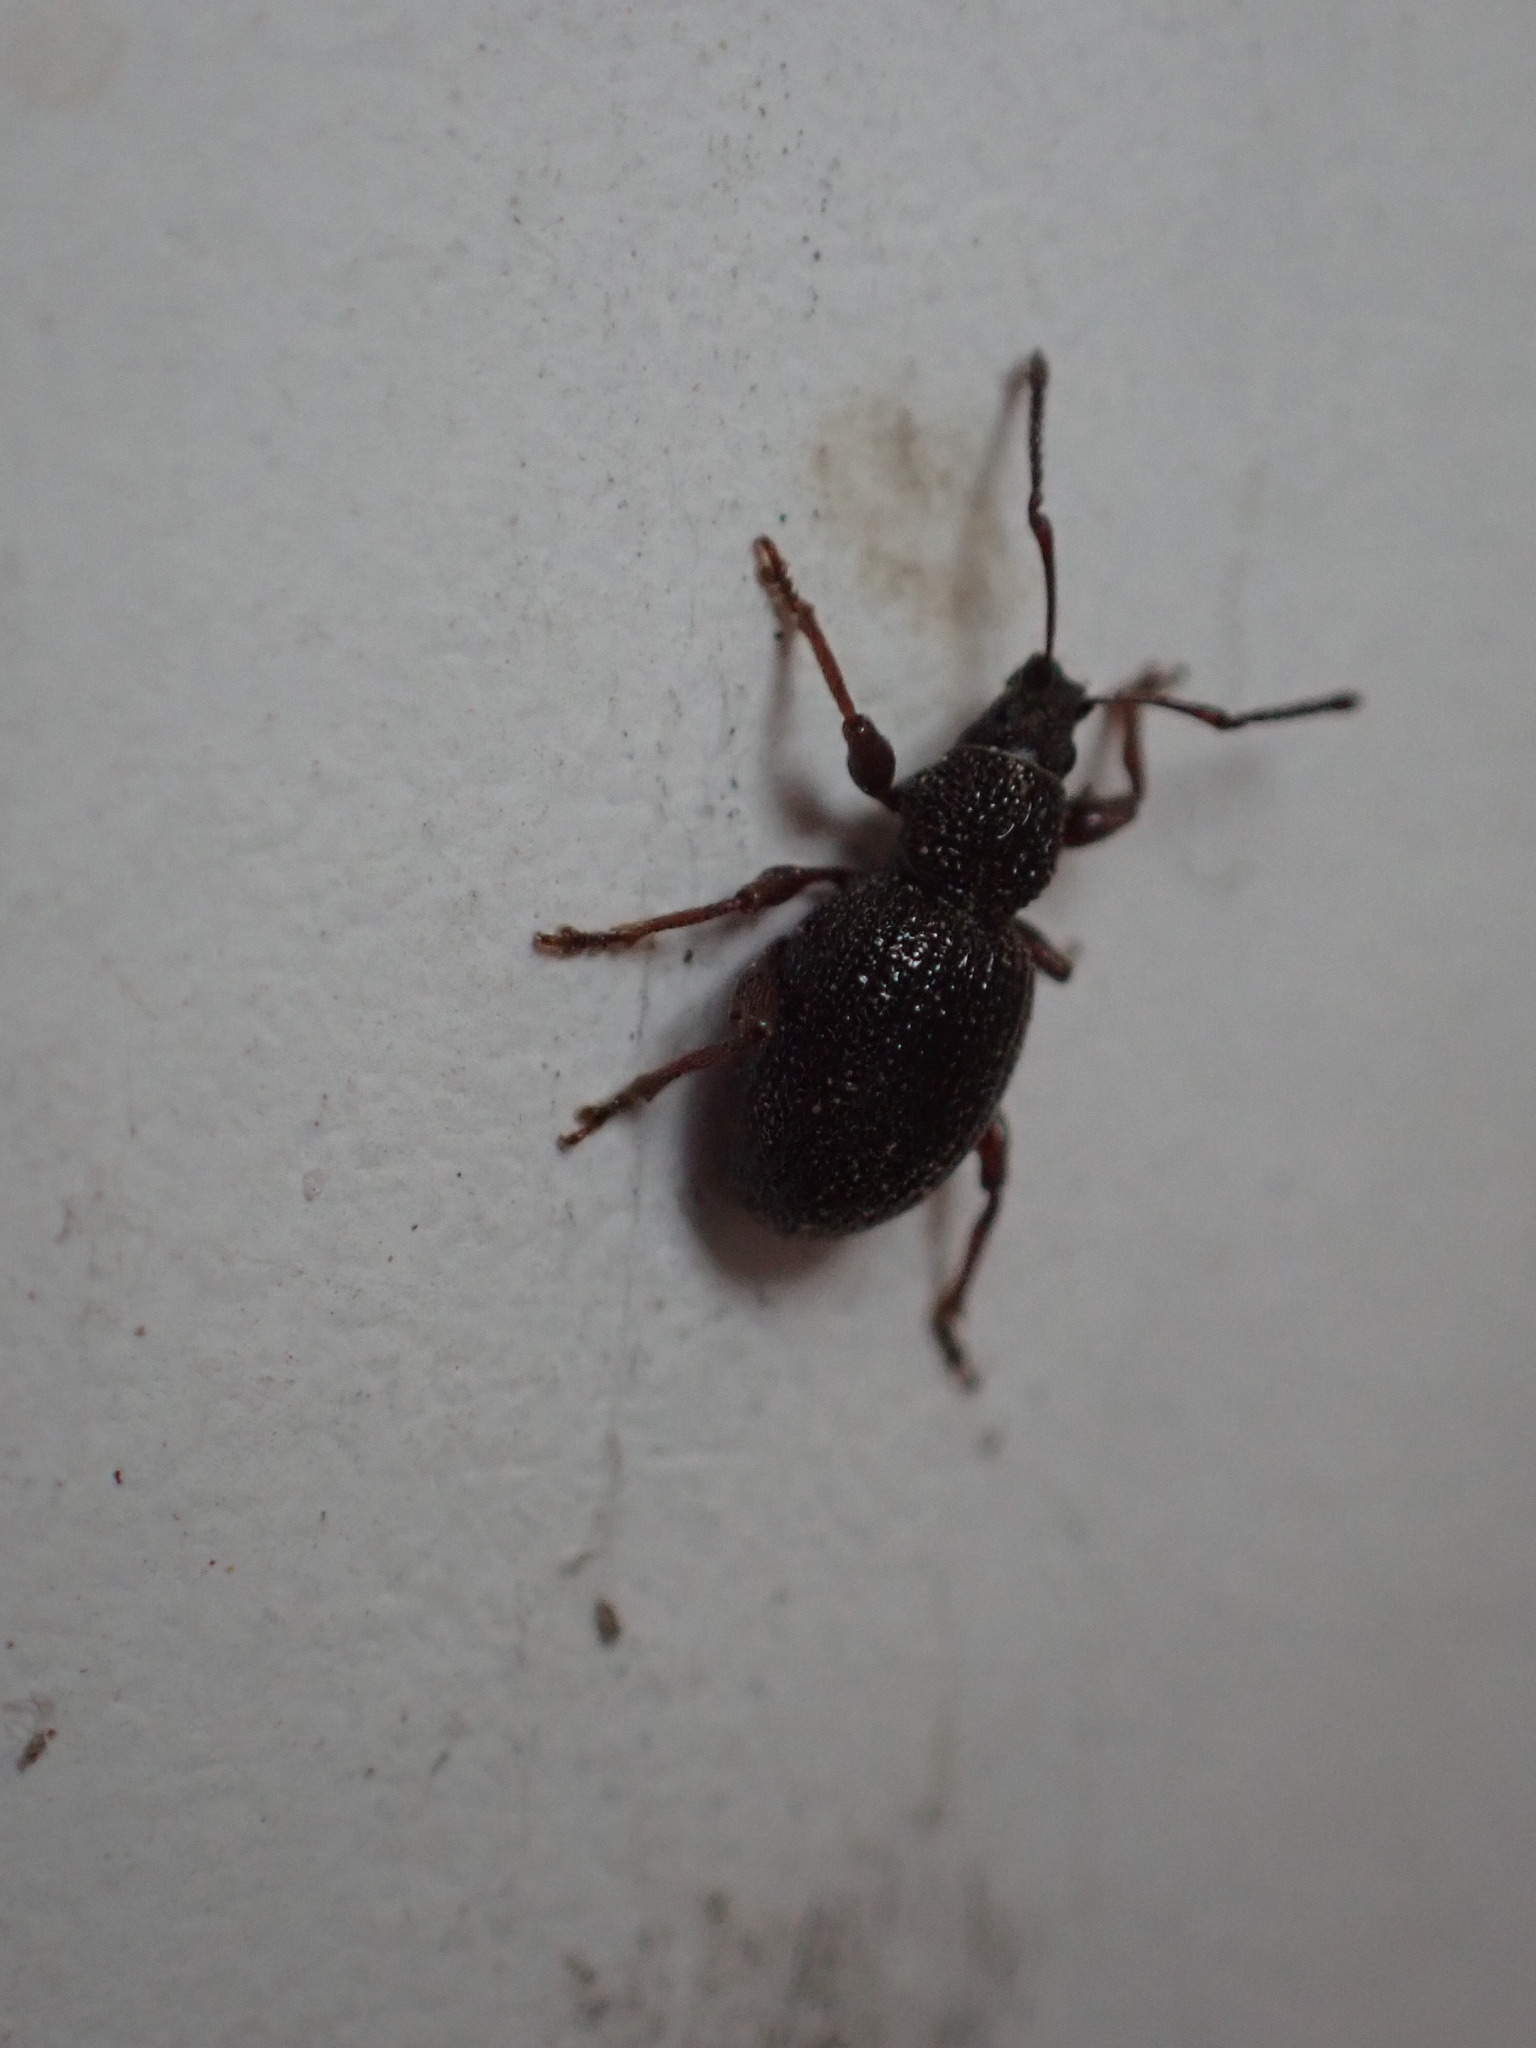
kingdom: Animalia
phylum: Arthropoda
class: Insecta
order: Coleoptera
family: Curculionidae
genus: Otiorhynchus
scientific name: Otiorhynchus ovatus
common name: Strawberry root weevil
